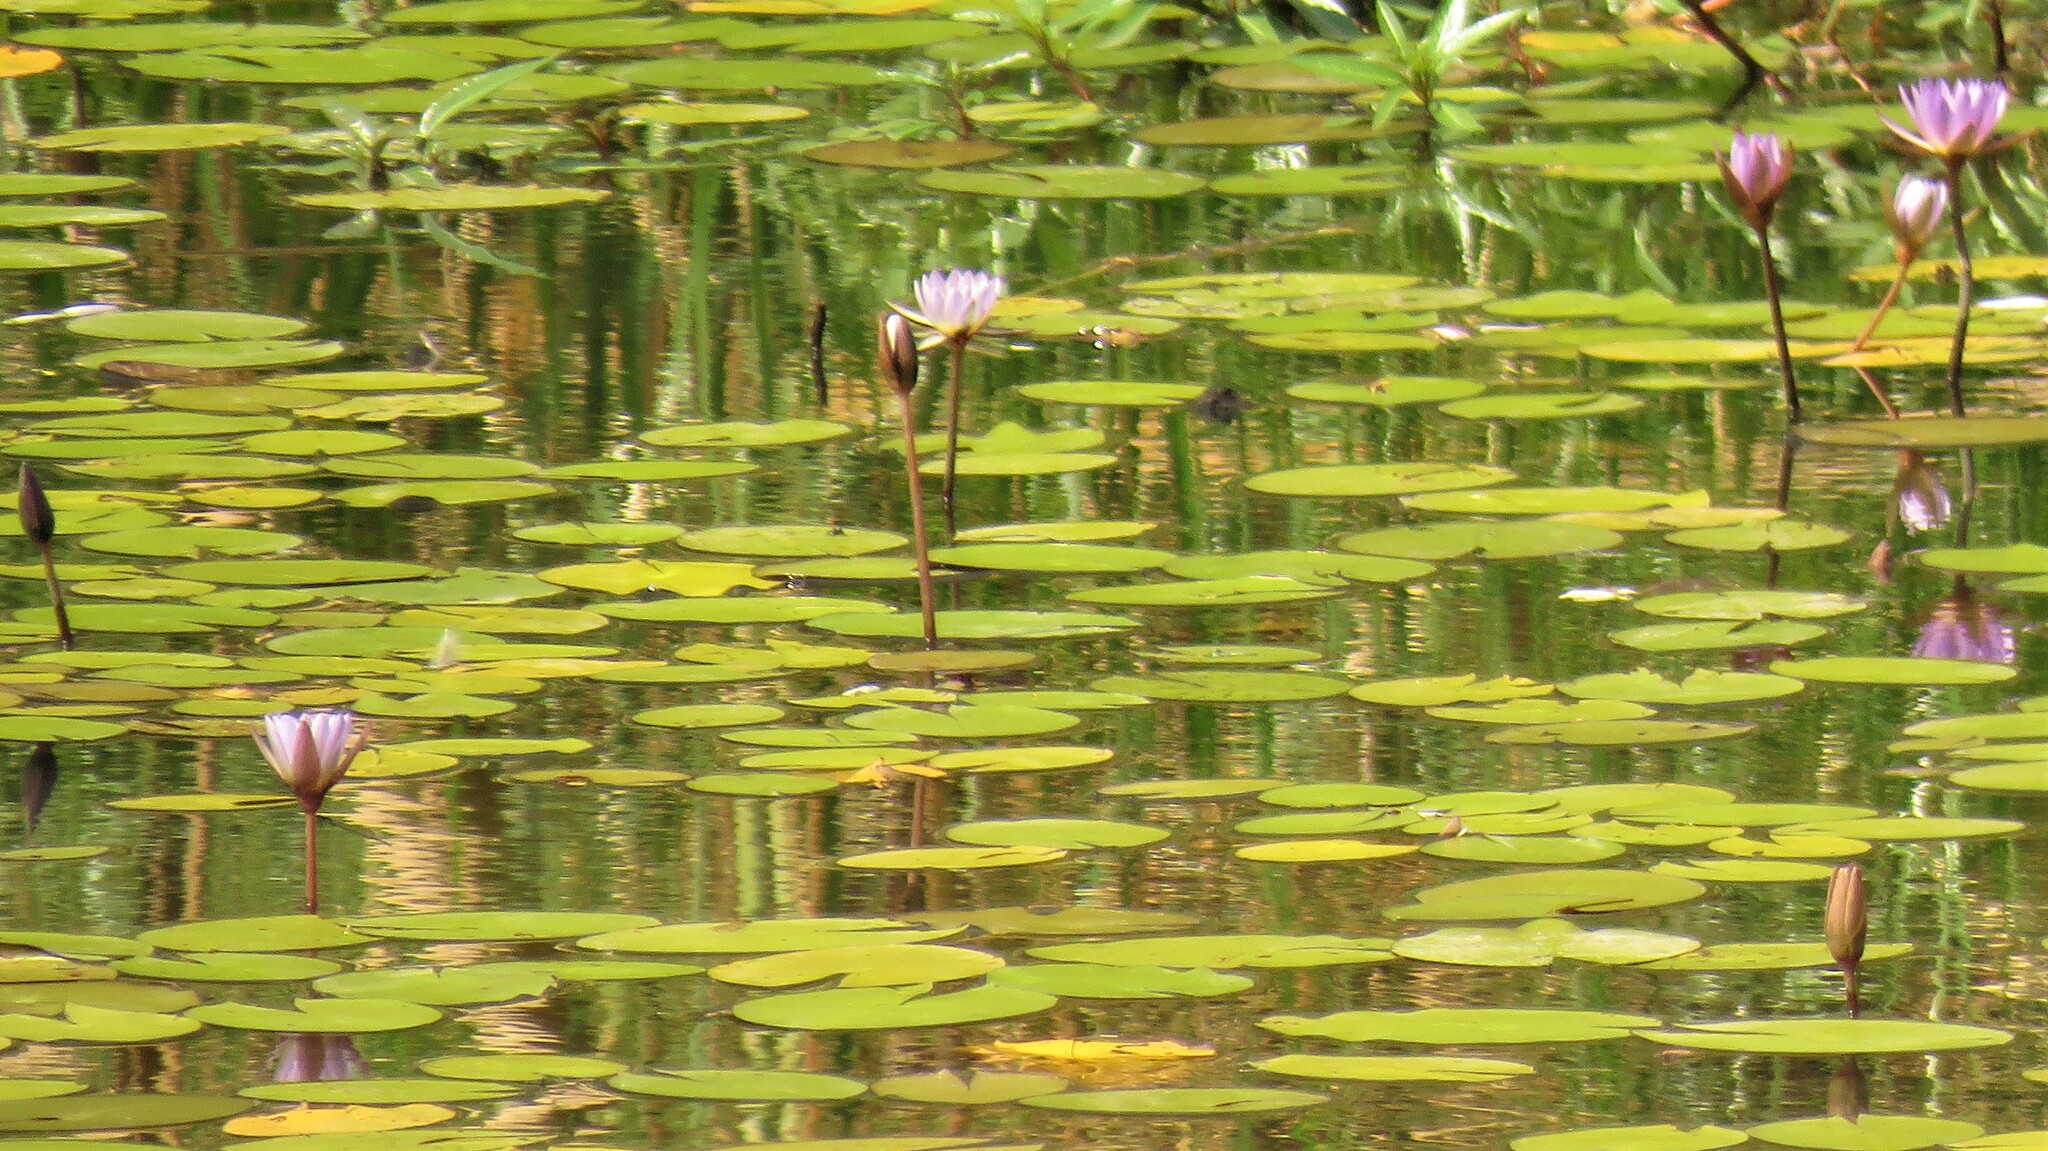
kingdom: Plantae
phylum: Tracheophyta
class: Magnoliopsida
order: Nymphaeales
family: Nymphaeaceae
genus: Nymphaea
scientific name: Nymphaea nouchali
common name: Blue lotus
